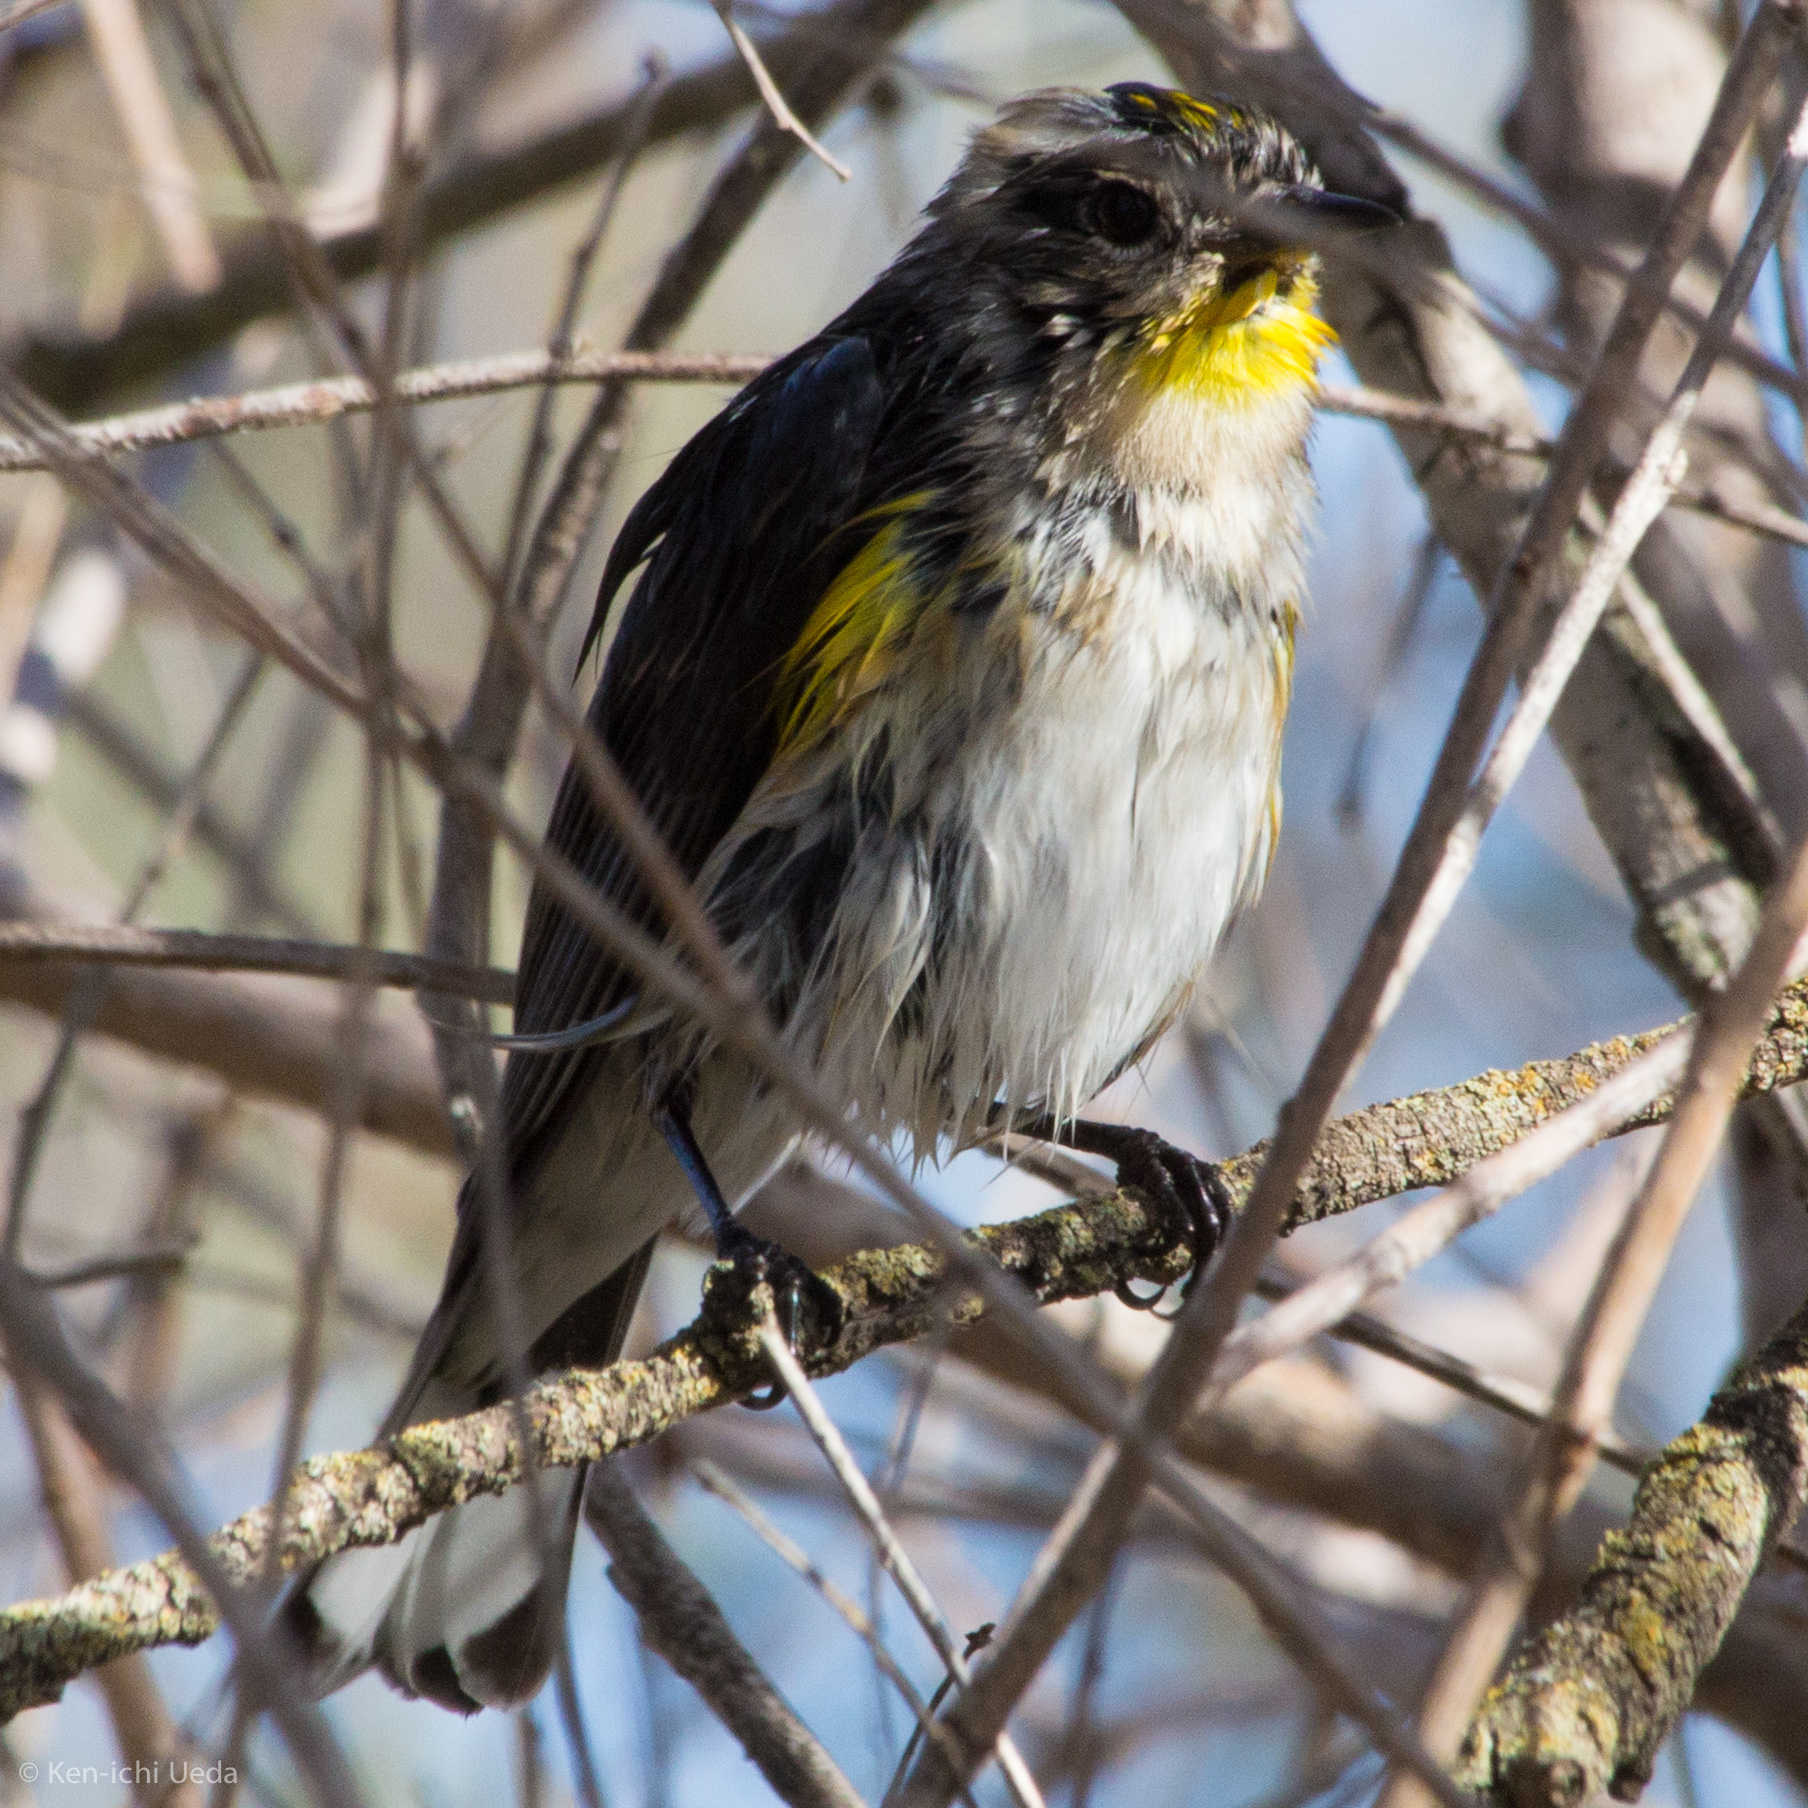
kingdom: Animalia
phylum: Chordata
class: Aves
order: Passeriformes
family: Parulidae
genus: Setophaga
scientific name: Setophaga coronata
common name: Myrtle warbler
